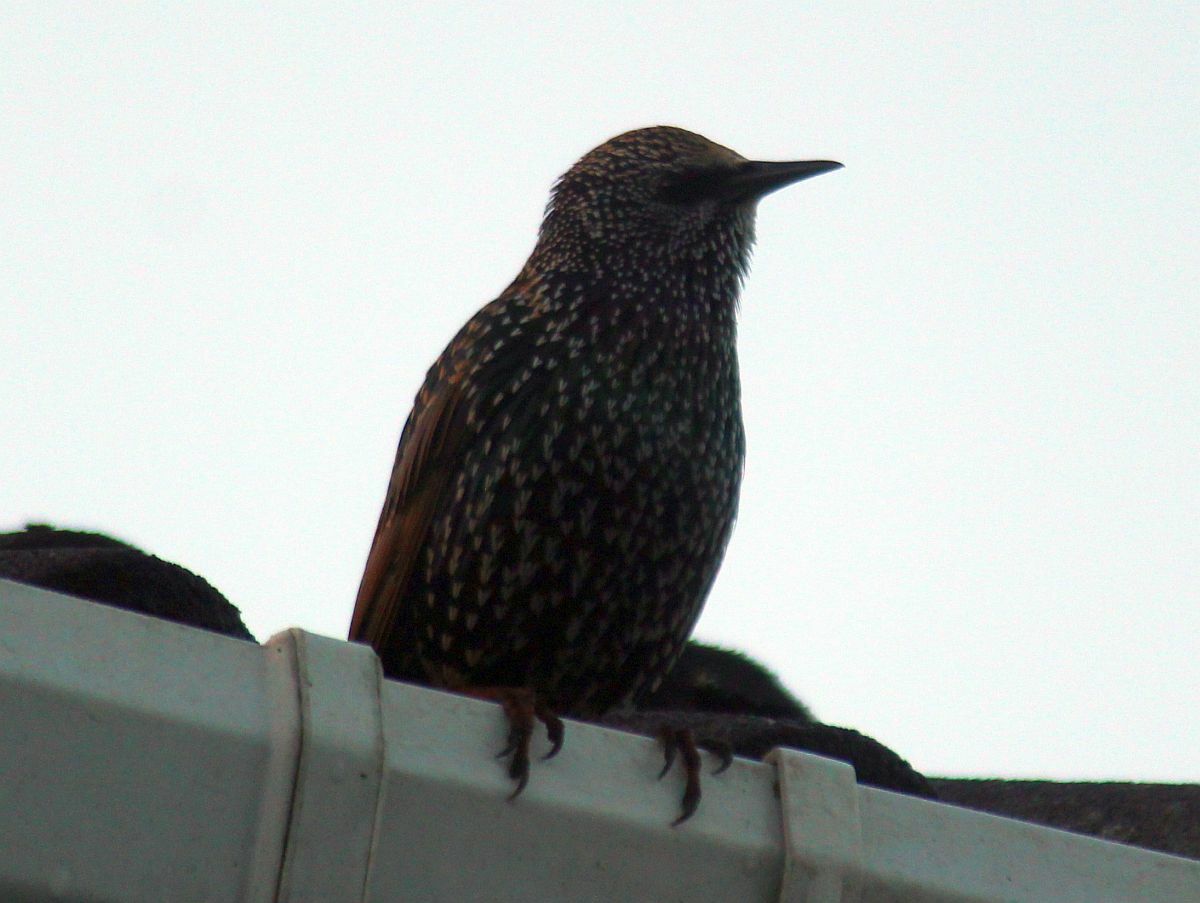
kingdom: Animalia
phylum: Chordata
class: Aves
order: Passeriformes
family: Sturnidae
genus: Sturnus
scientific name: Sturnus vulgaris
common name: Common starling
